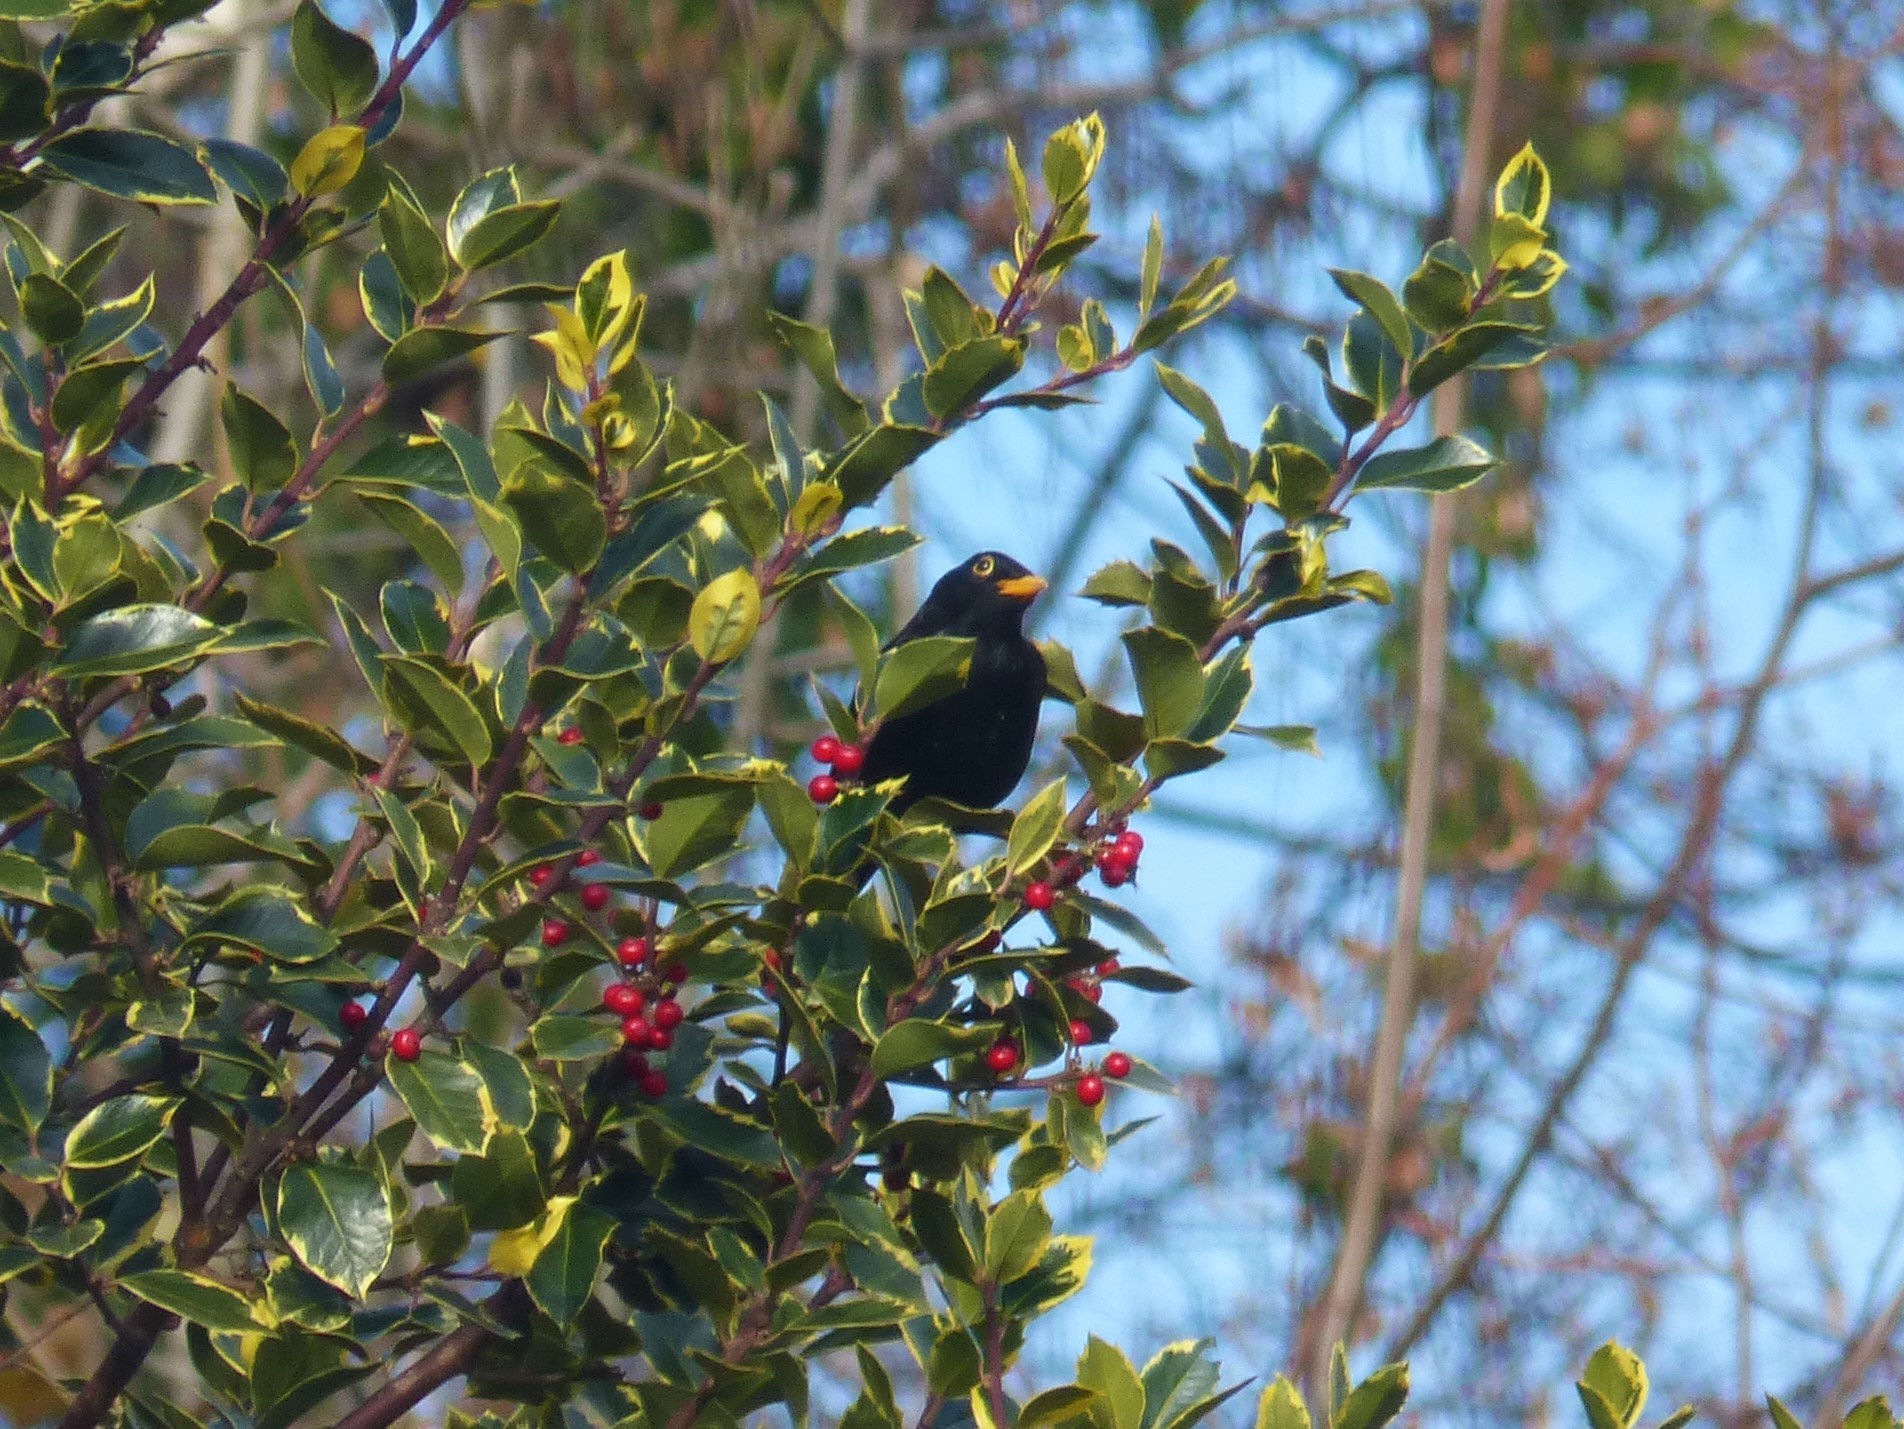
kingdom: Animalia
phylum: Chordata
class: Aves
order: Passeriformes
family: Turdidae
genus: Turdus
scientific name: Turdus merula
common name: Common blackbird
